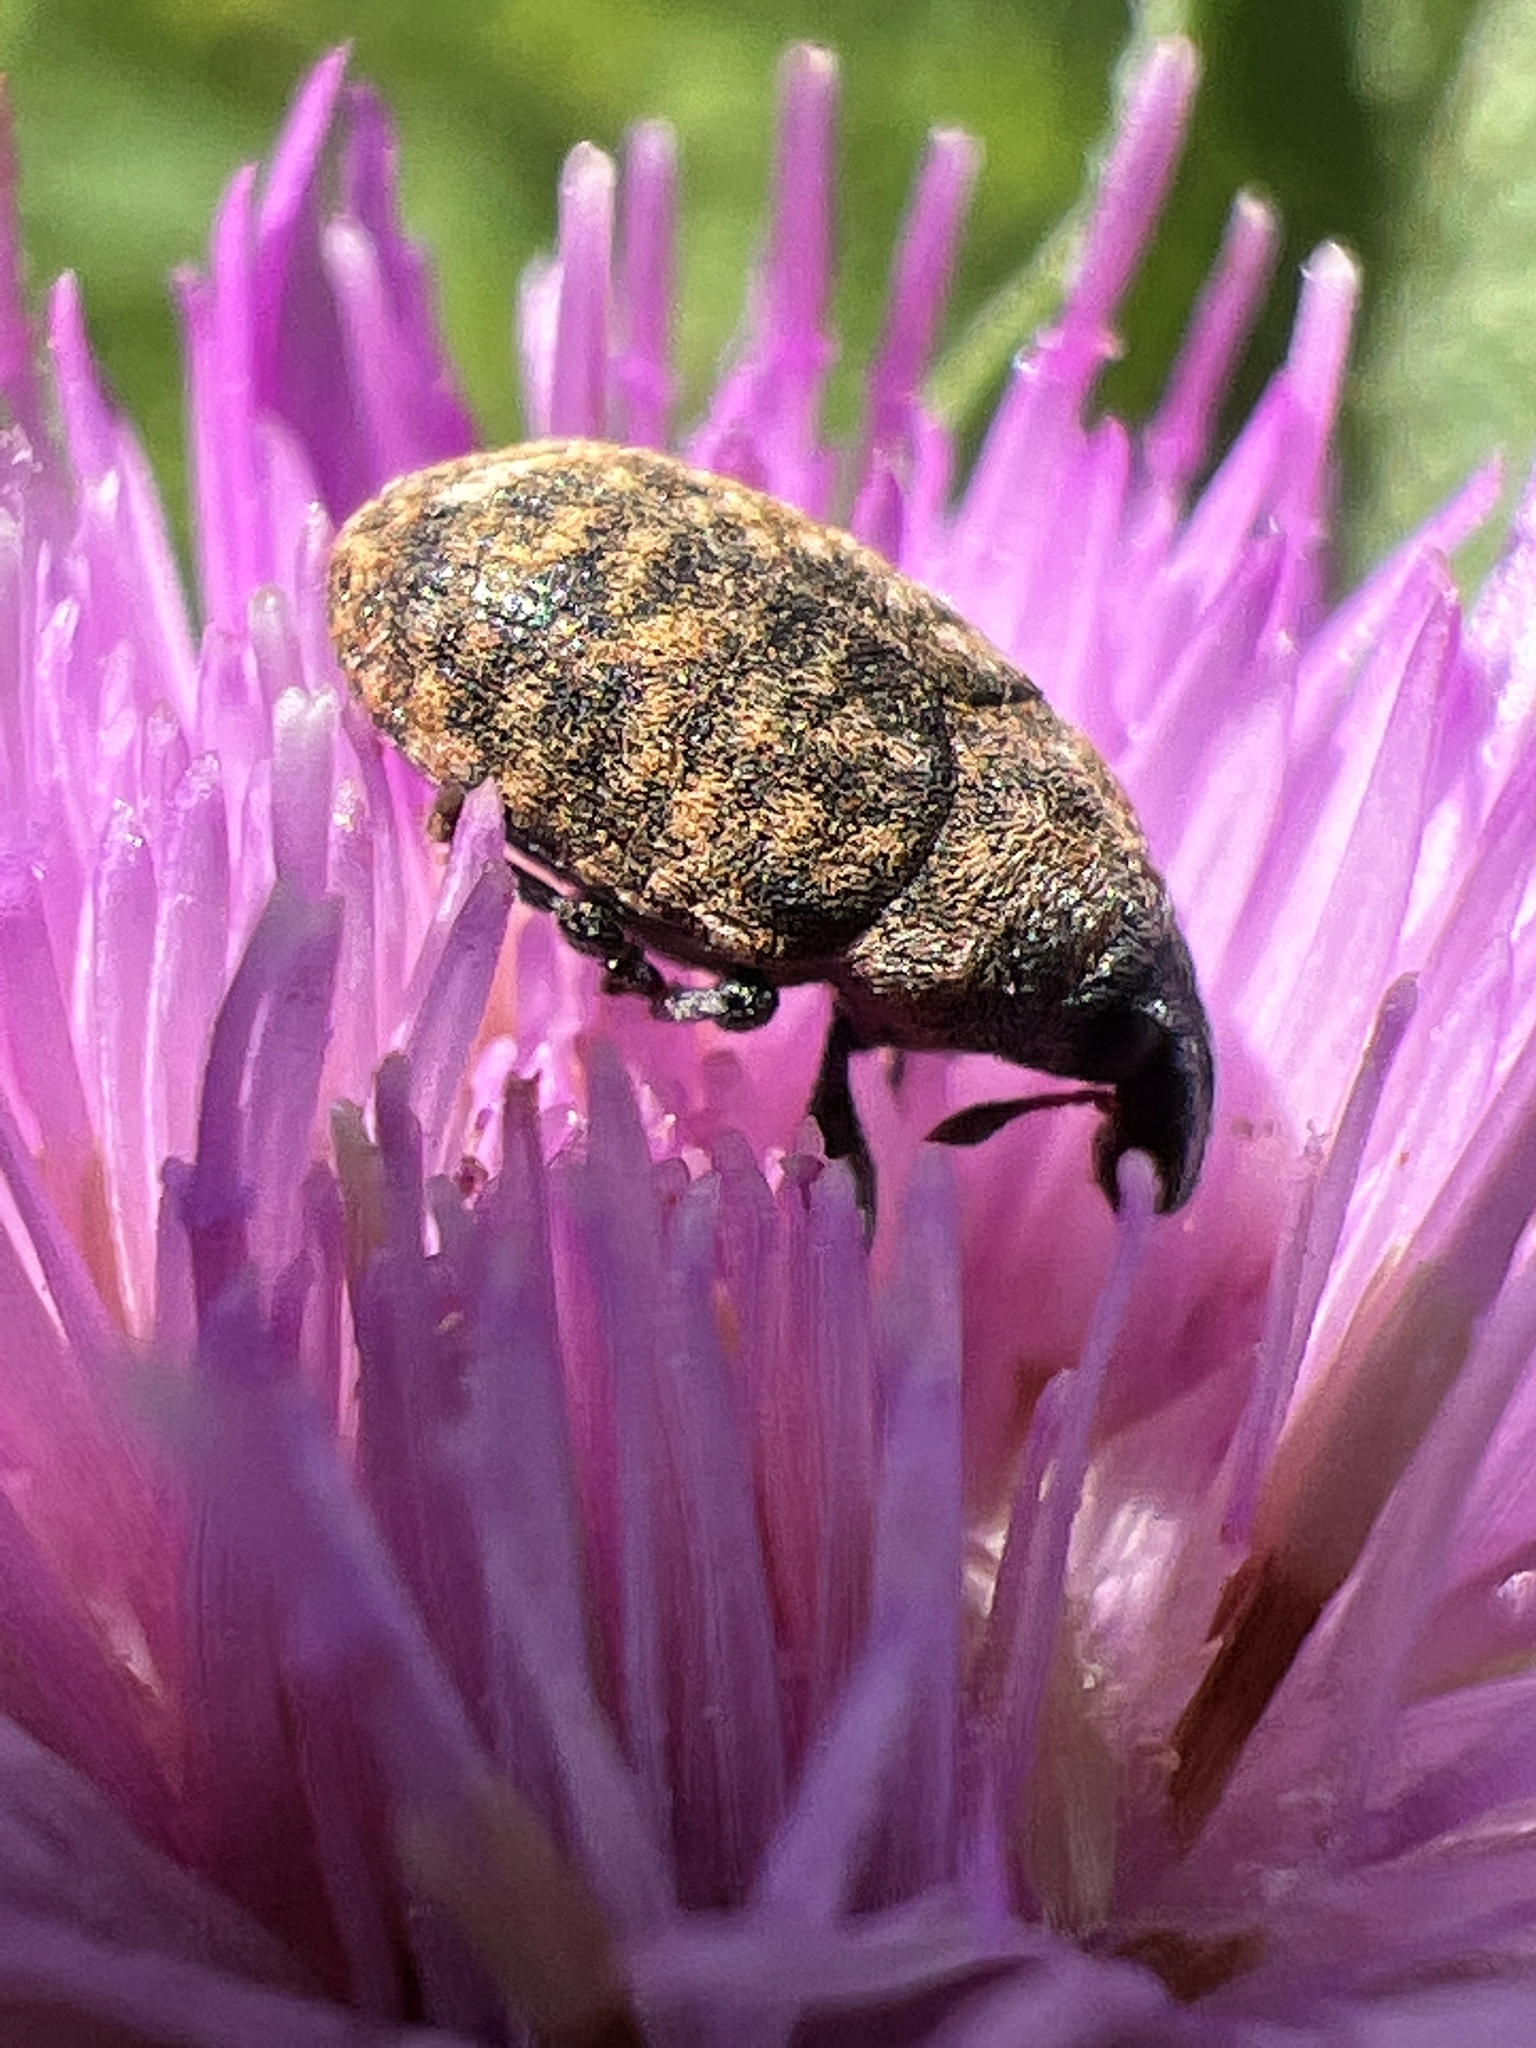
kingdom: Animalia
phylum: Arthropoda
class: Insecta
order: Coleoptera
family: Curculionidae
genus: Larinus
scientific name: Larinus obtusus
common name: Weevil
